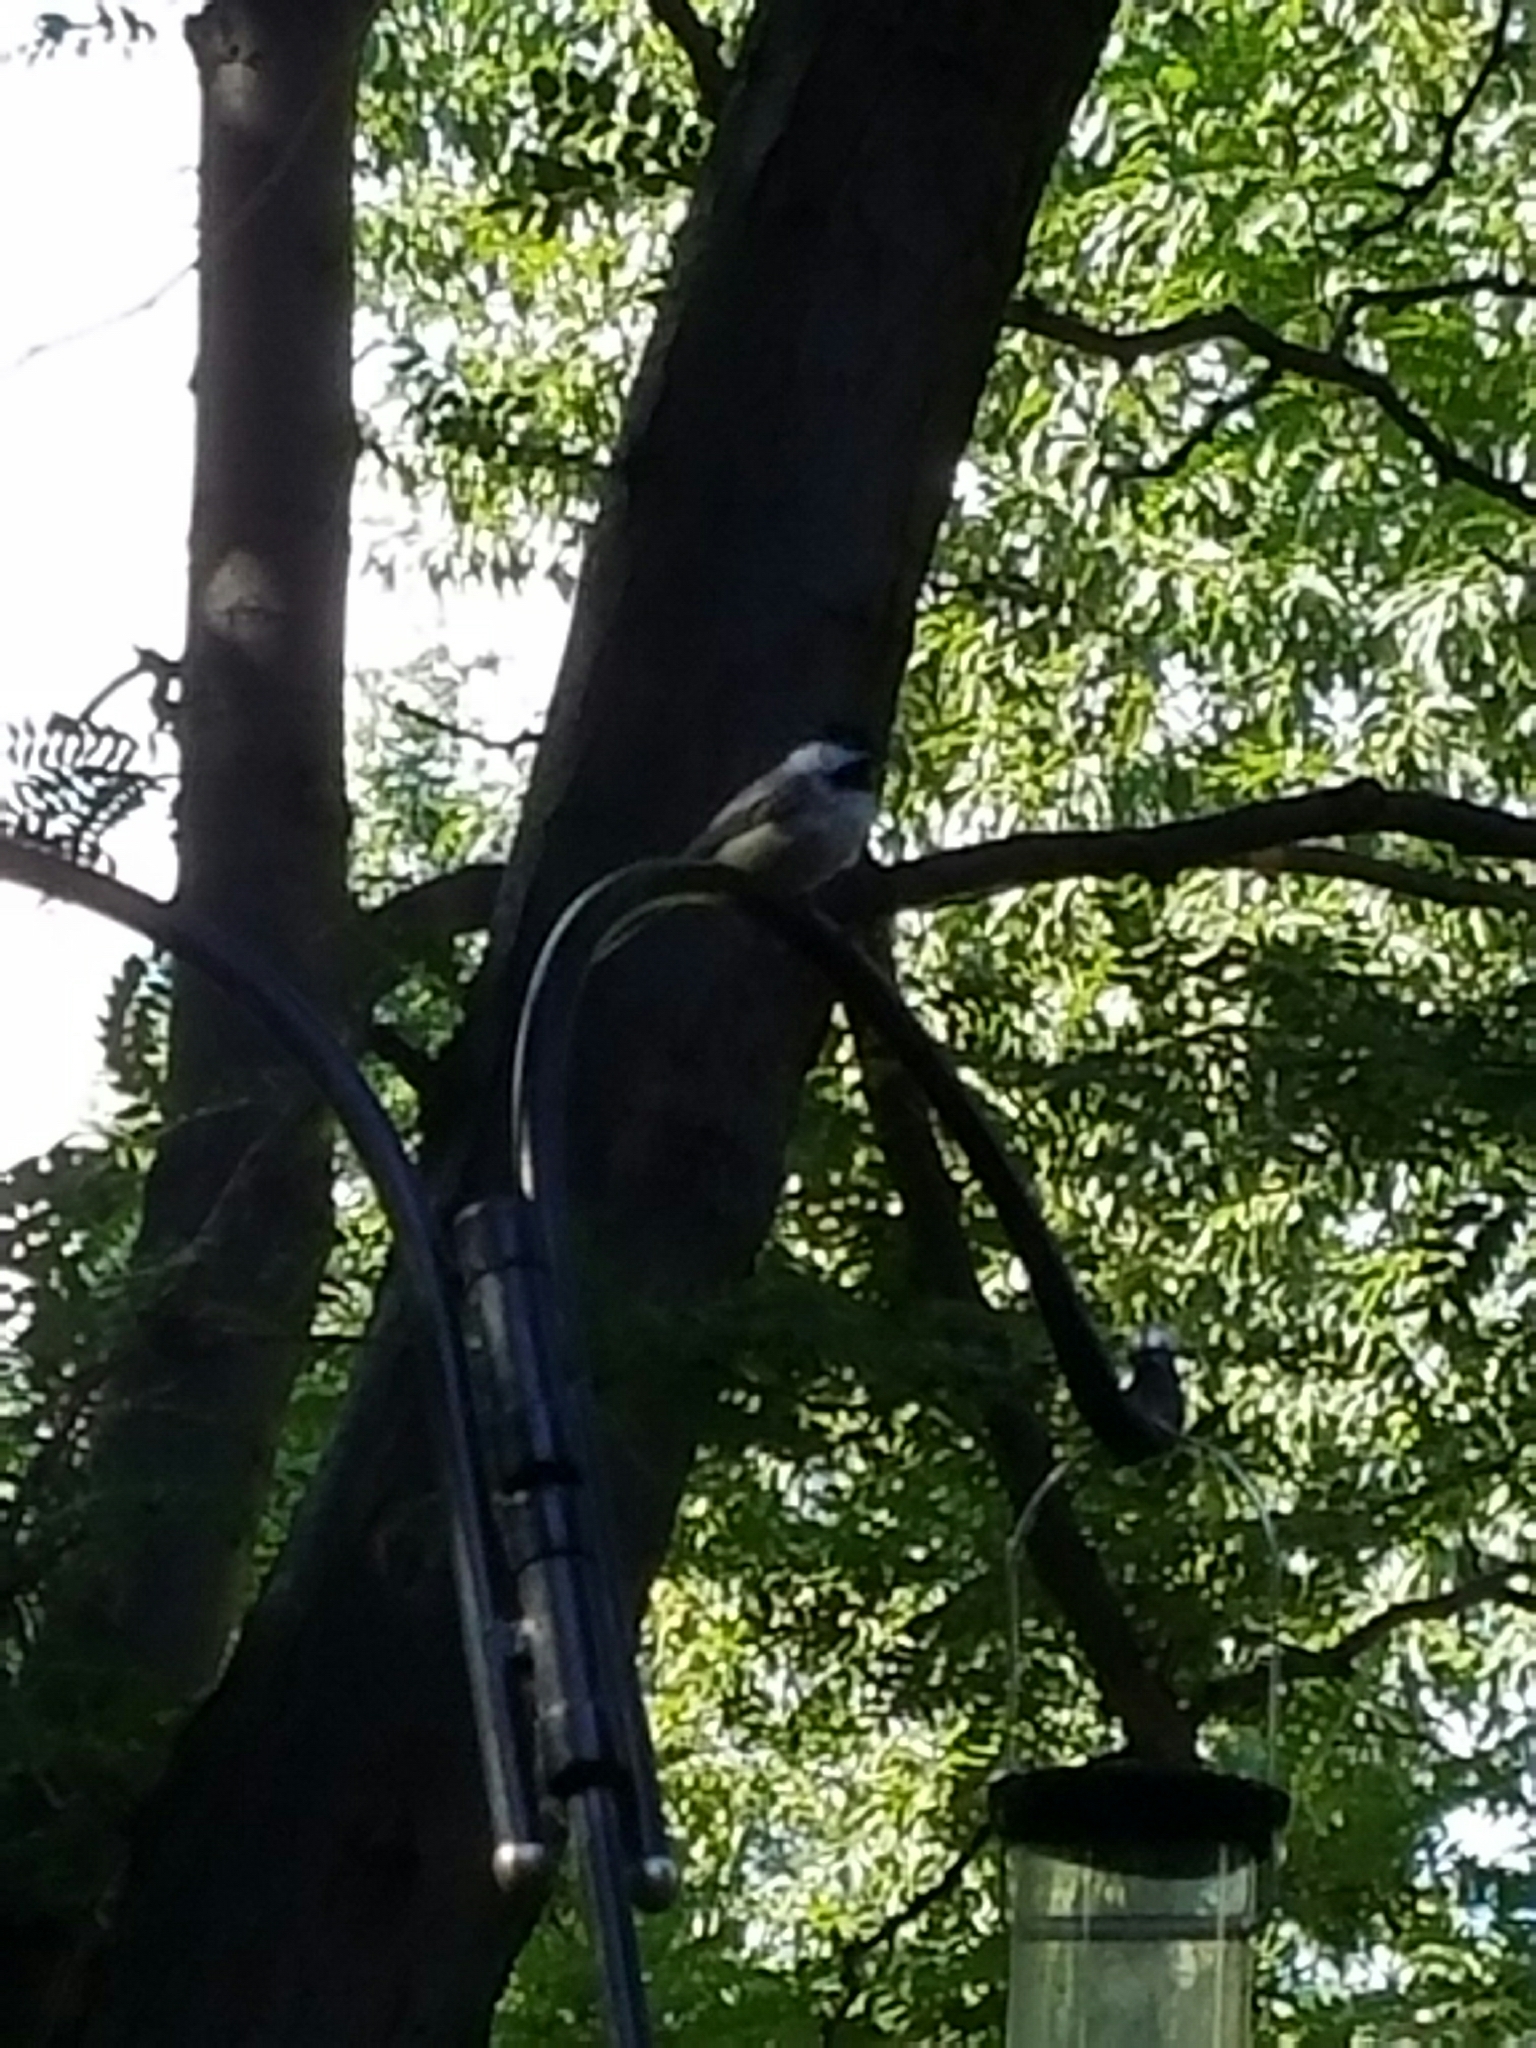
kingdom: Animalia
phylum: Chordata
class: Aves
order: Passeriformes
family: Paridae
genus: Poecile
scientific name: Poecile atricapillus
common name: Black-capped chickadee
